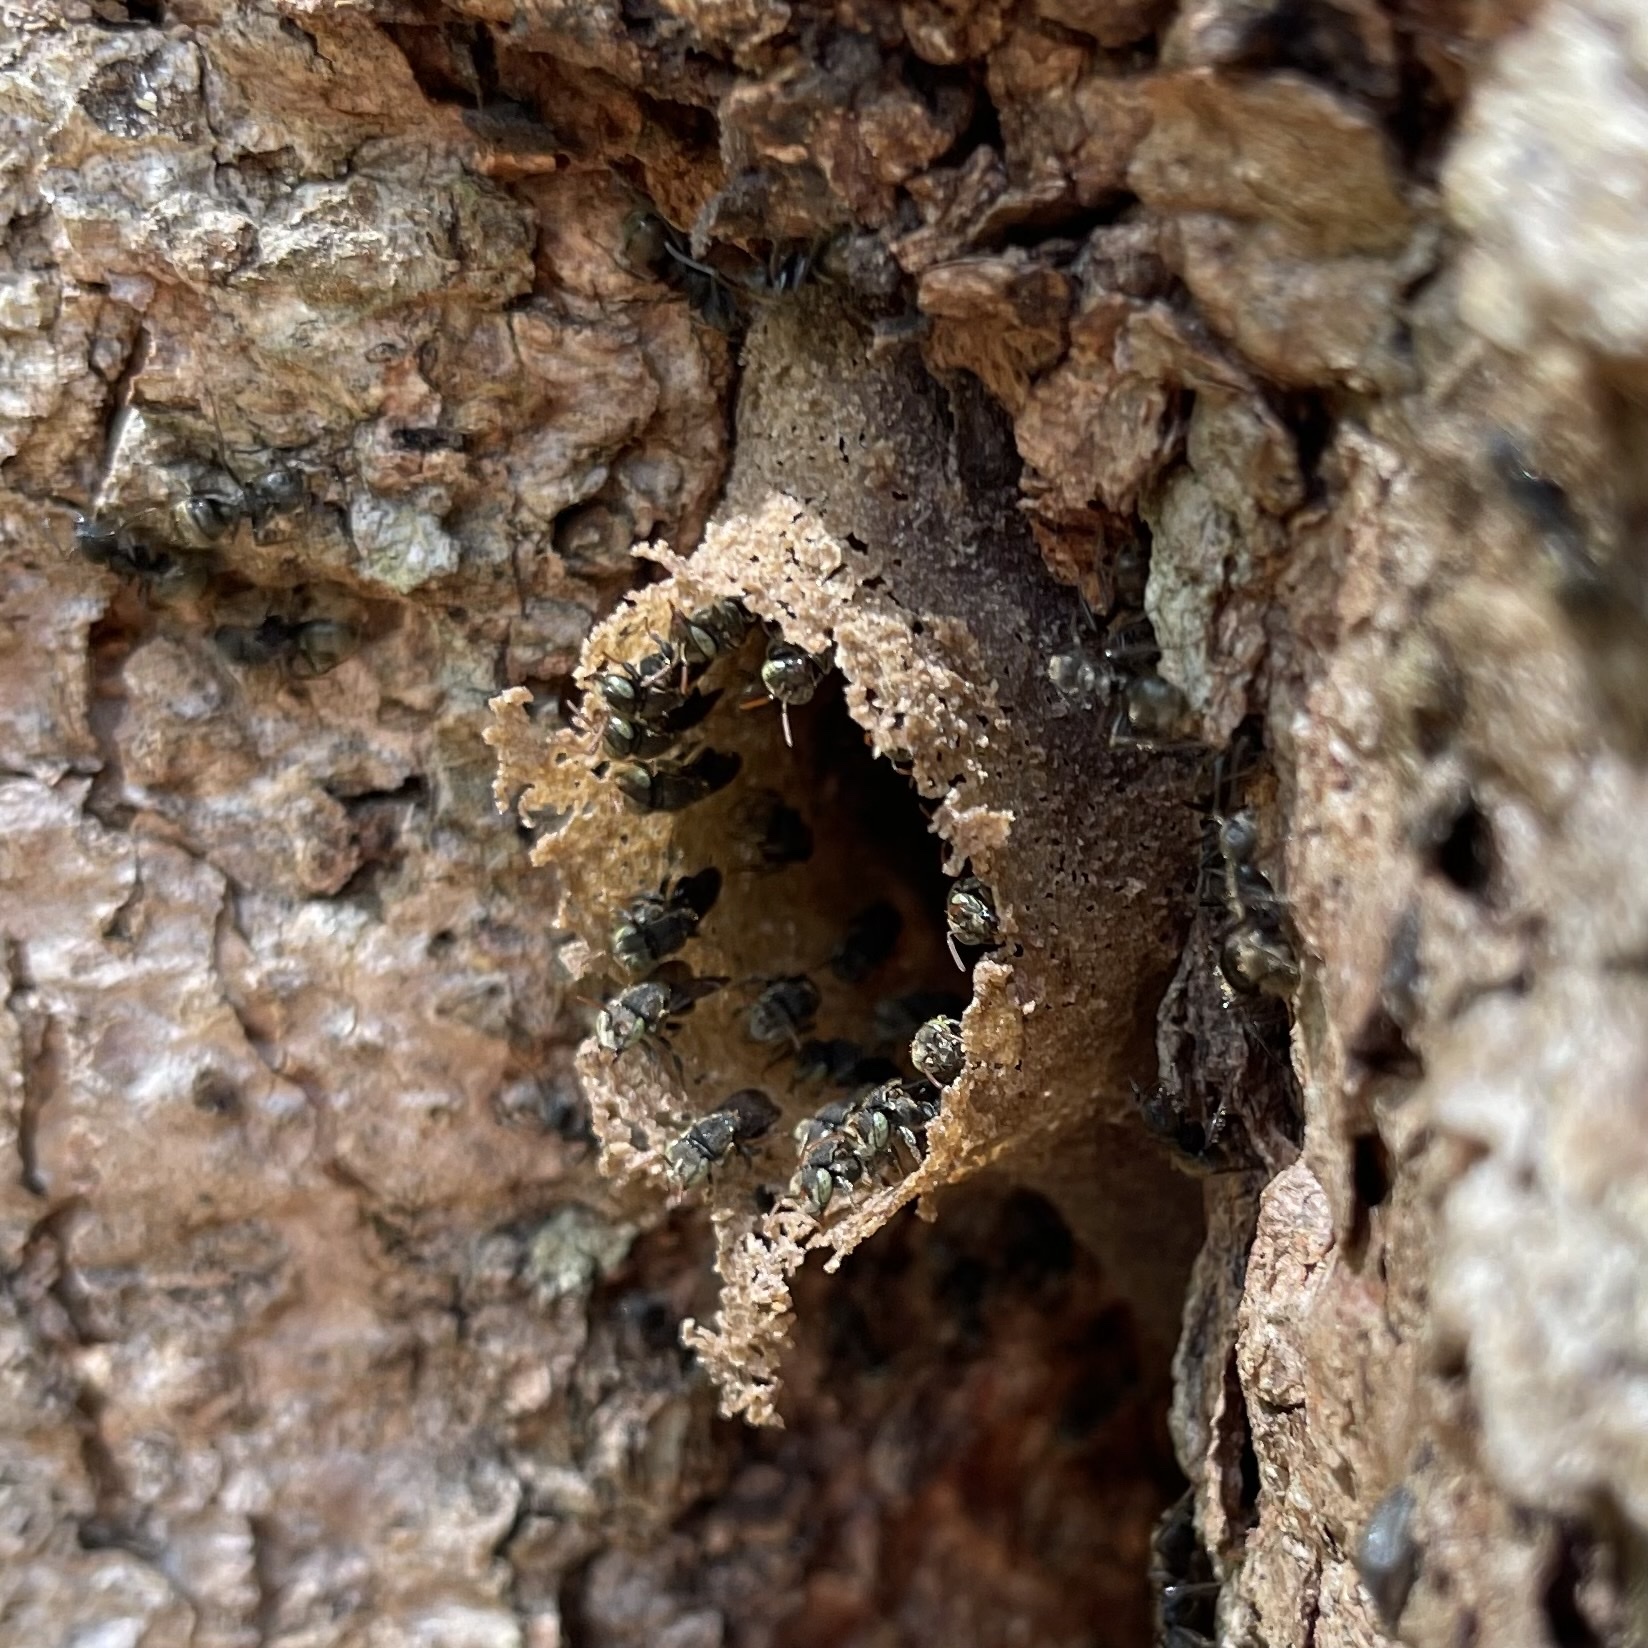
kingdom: Animalia
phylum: Arthropoda
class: Insecta
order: Hymenoptera
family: Apidae
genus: Nannotrigona
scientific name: Nannotrigona perilampoides
